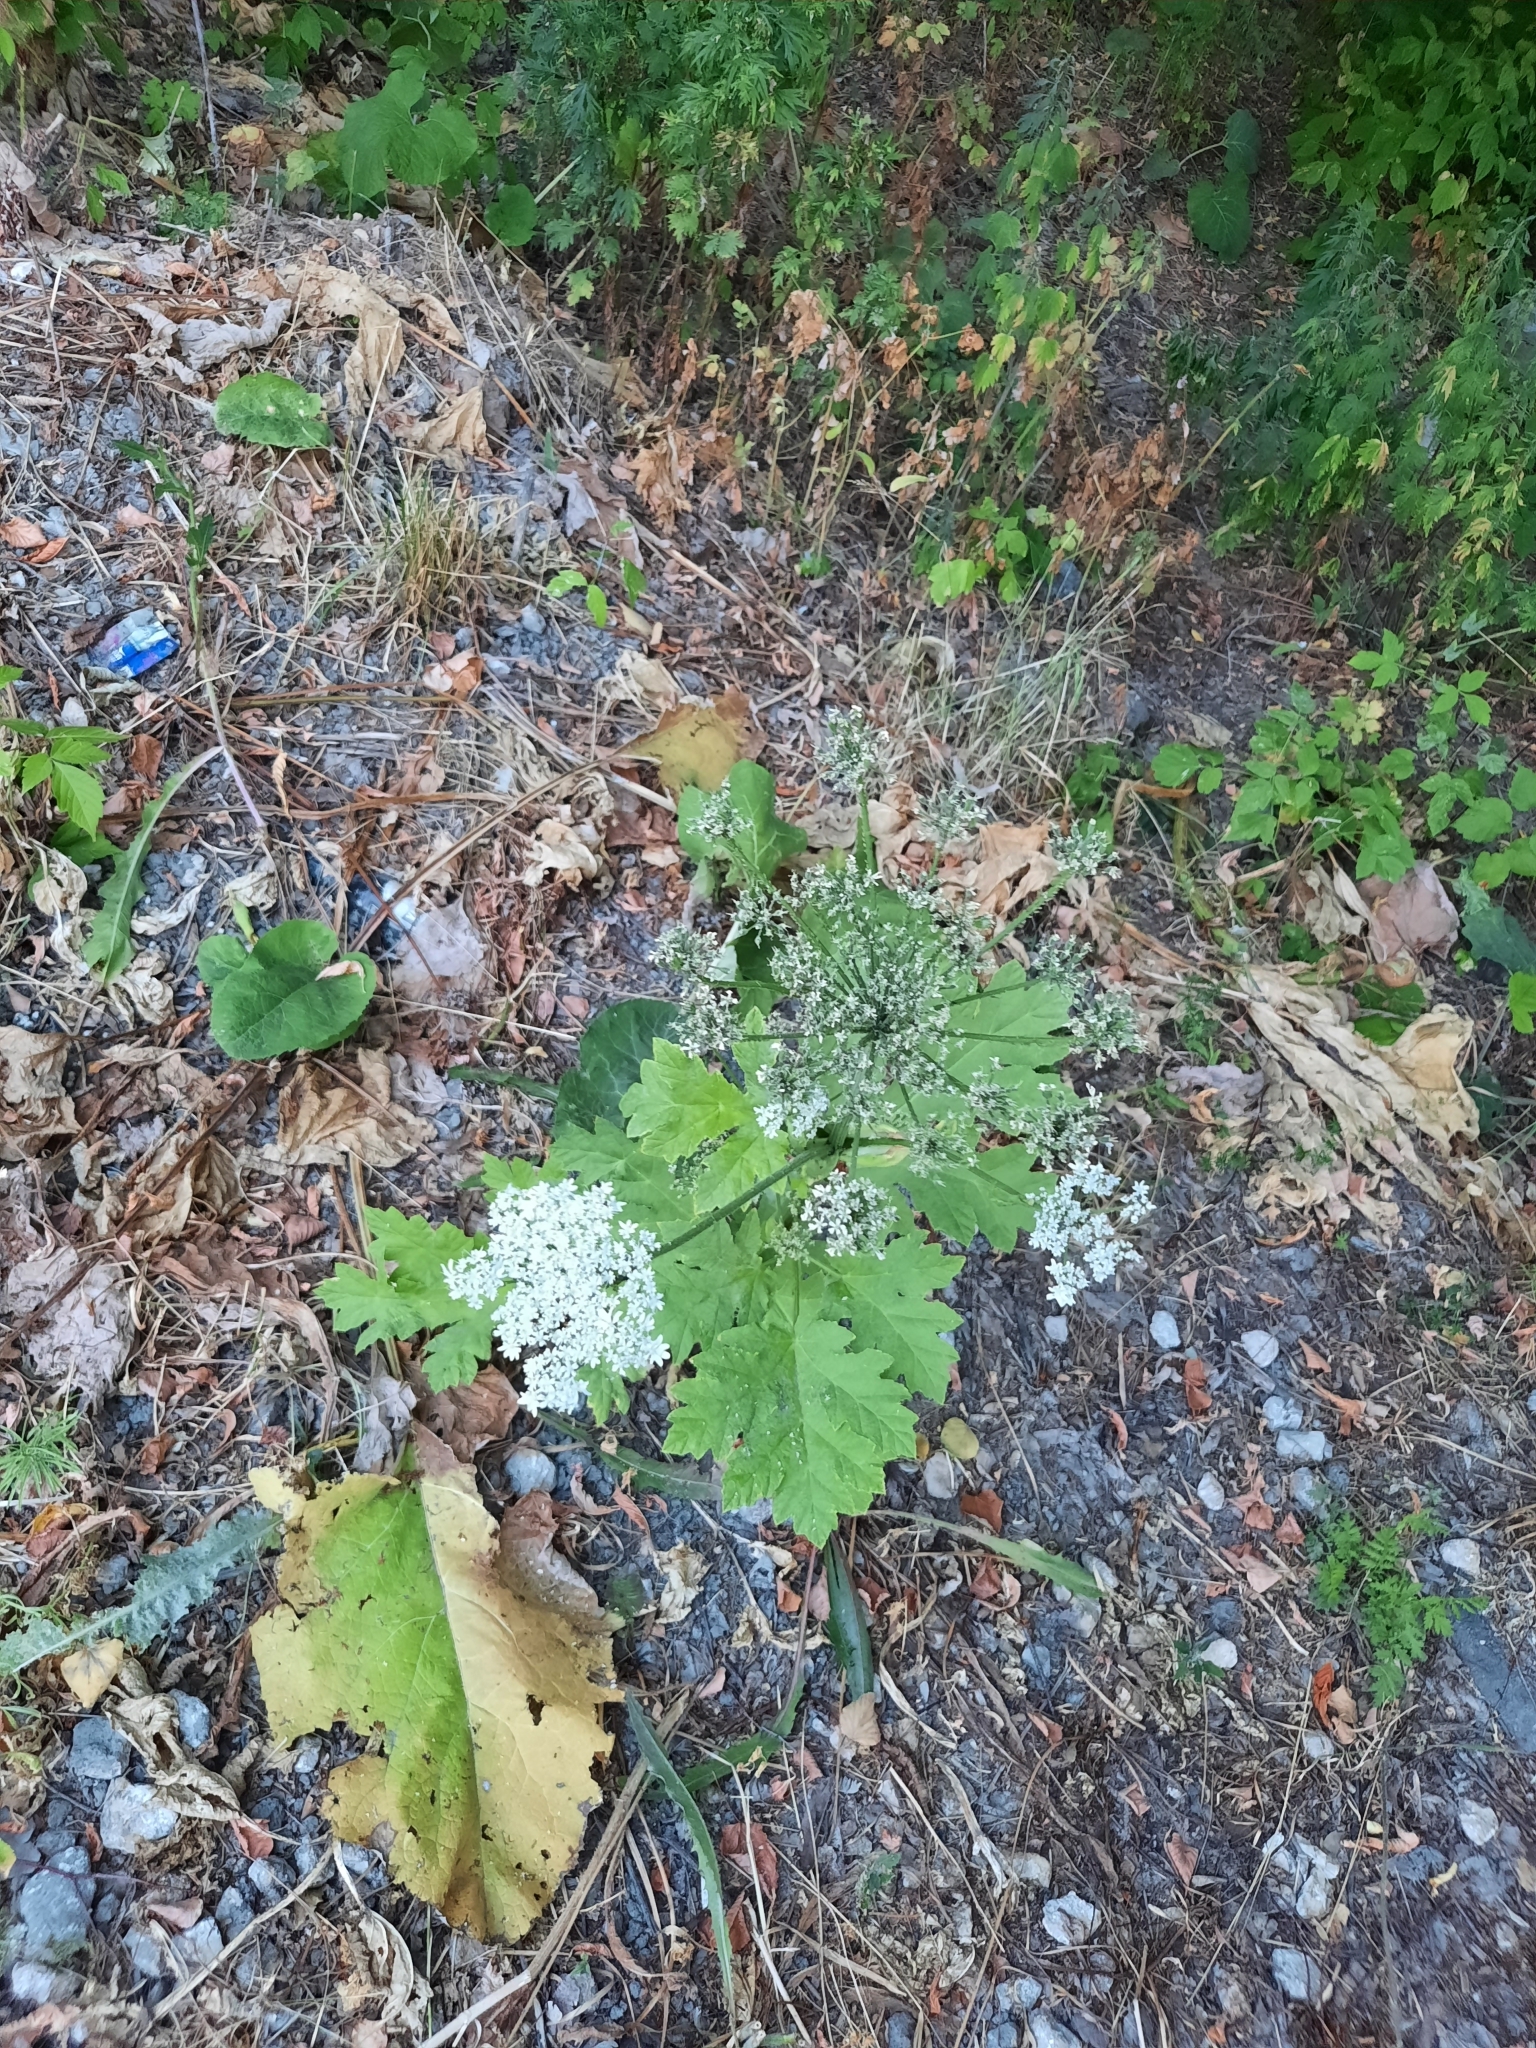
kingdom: Plantae
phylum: Tracheophyta
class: Magnoliopsida
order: Apiales
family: Apiaceae
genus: Heracleum
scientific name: Heracleum sosnowskyi
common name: Sosnowsky's hogweed
